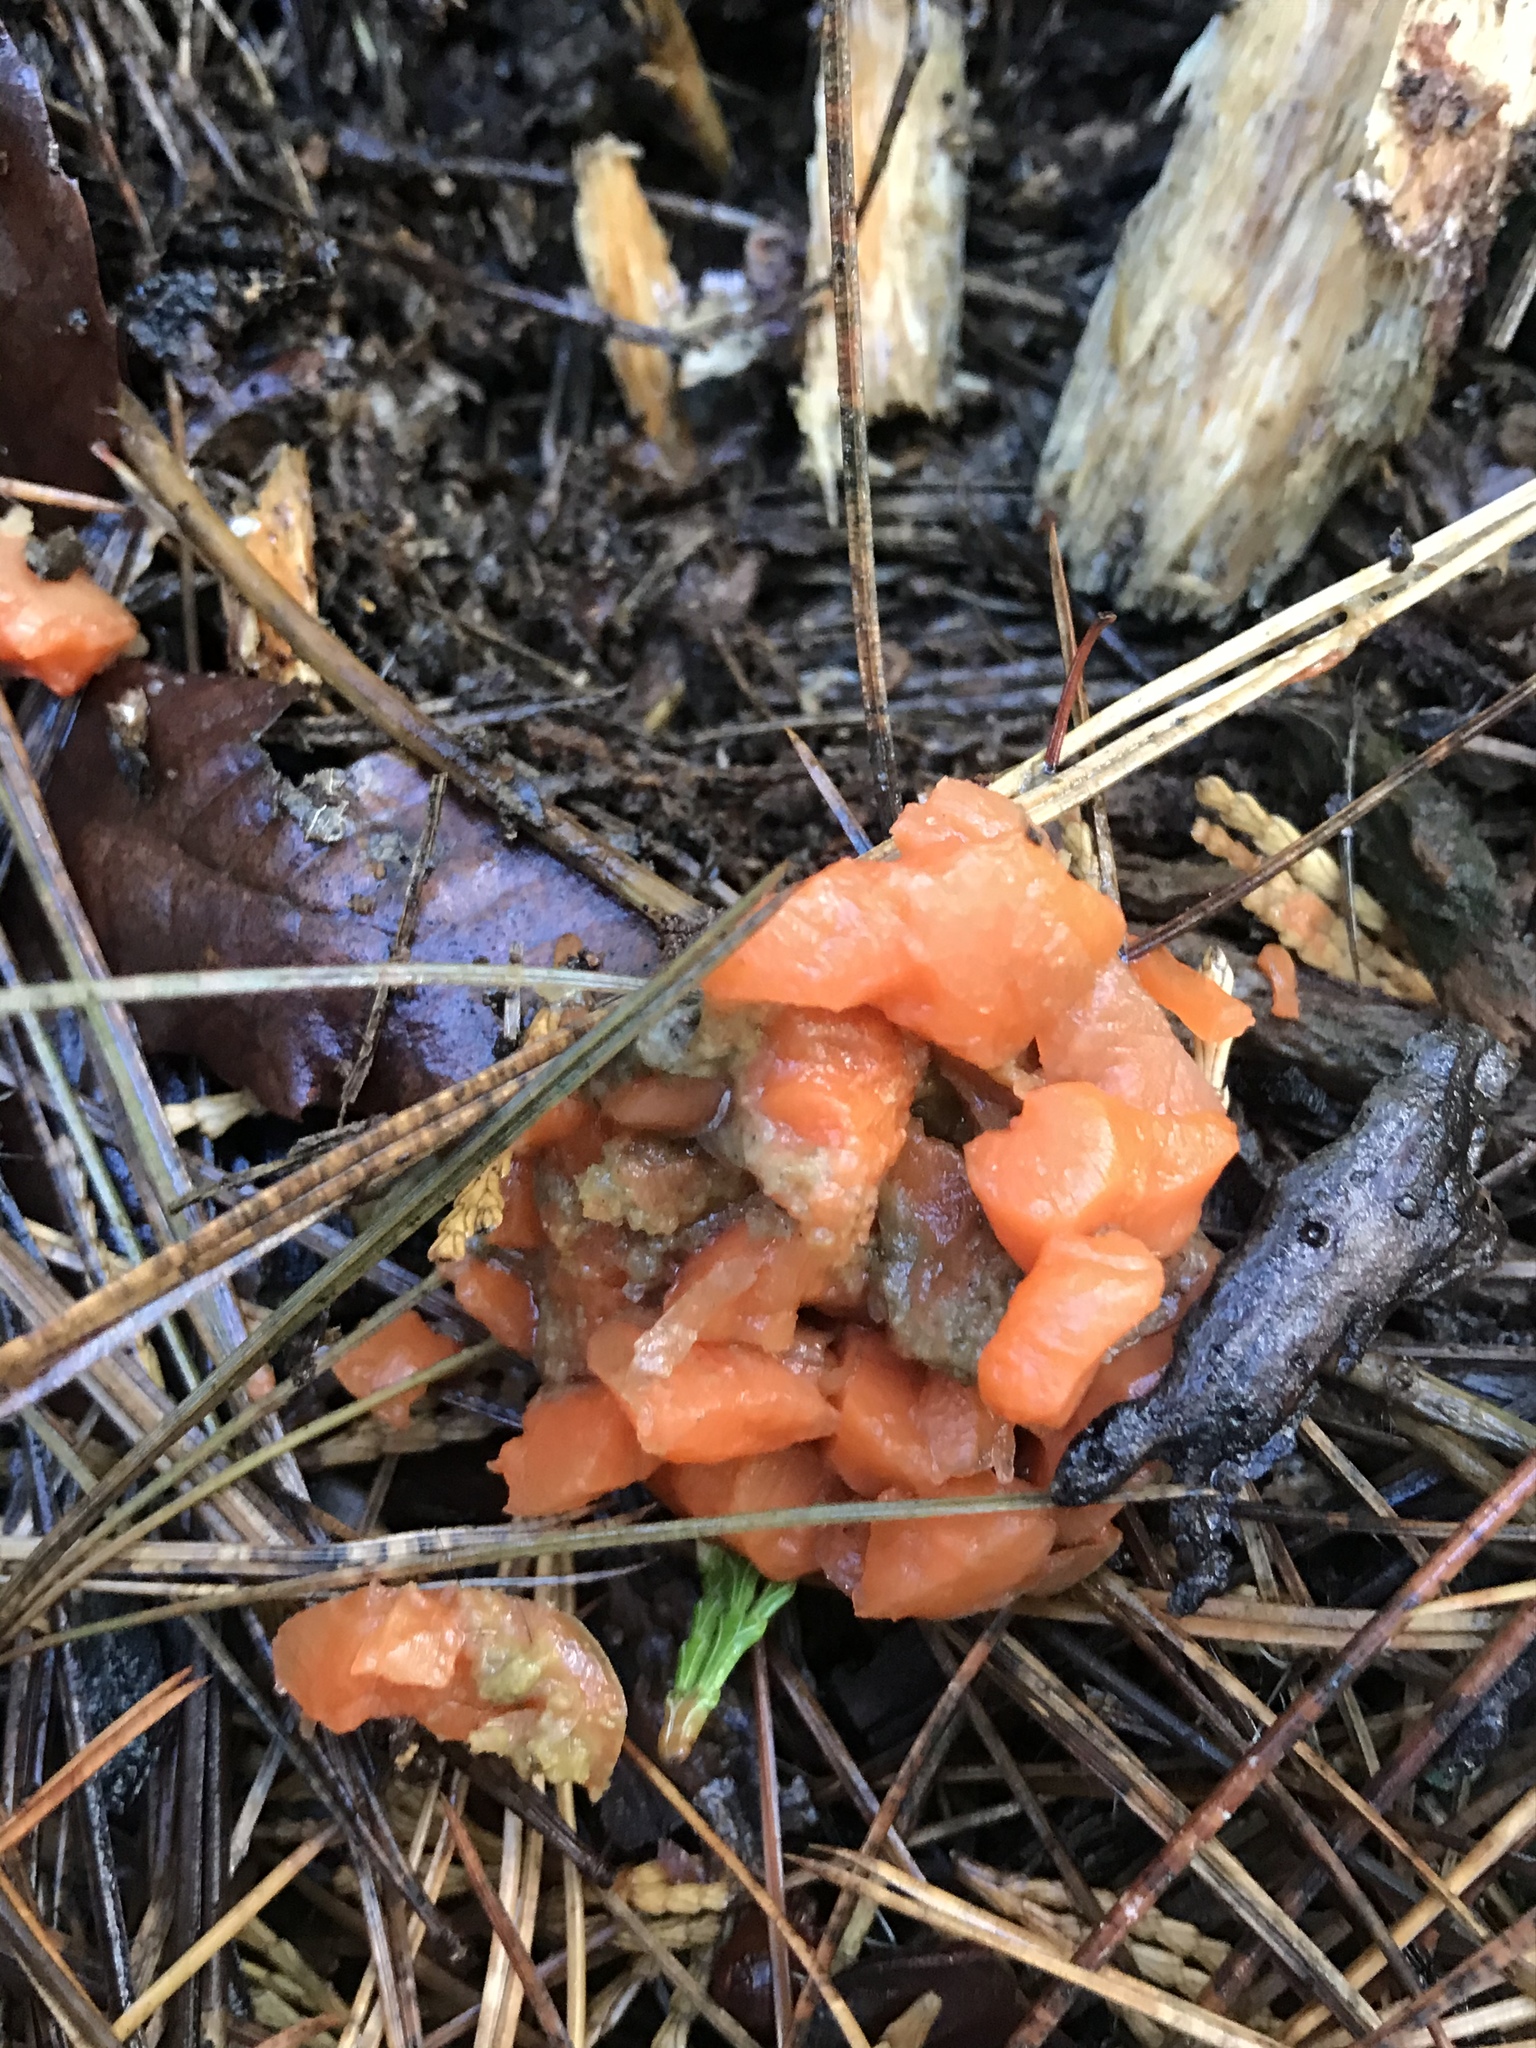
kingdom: Fungi
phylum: Basidiomycota
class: Agaricomycetes
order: Auriculariales
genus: Guepinia
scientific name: Guepinia helvelloides
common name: Salmon salad
